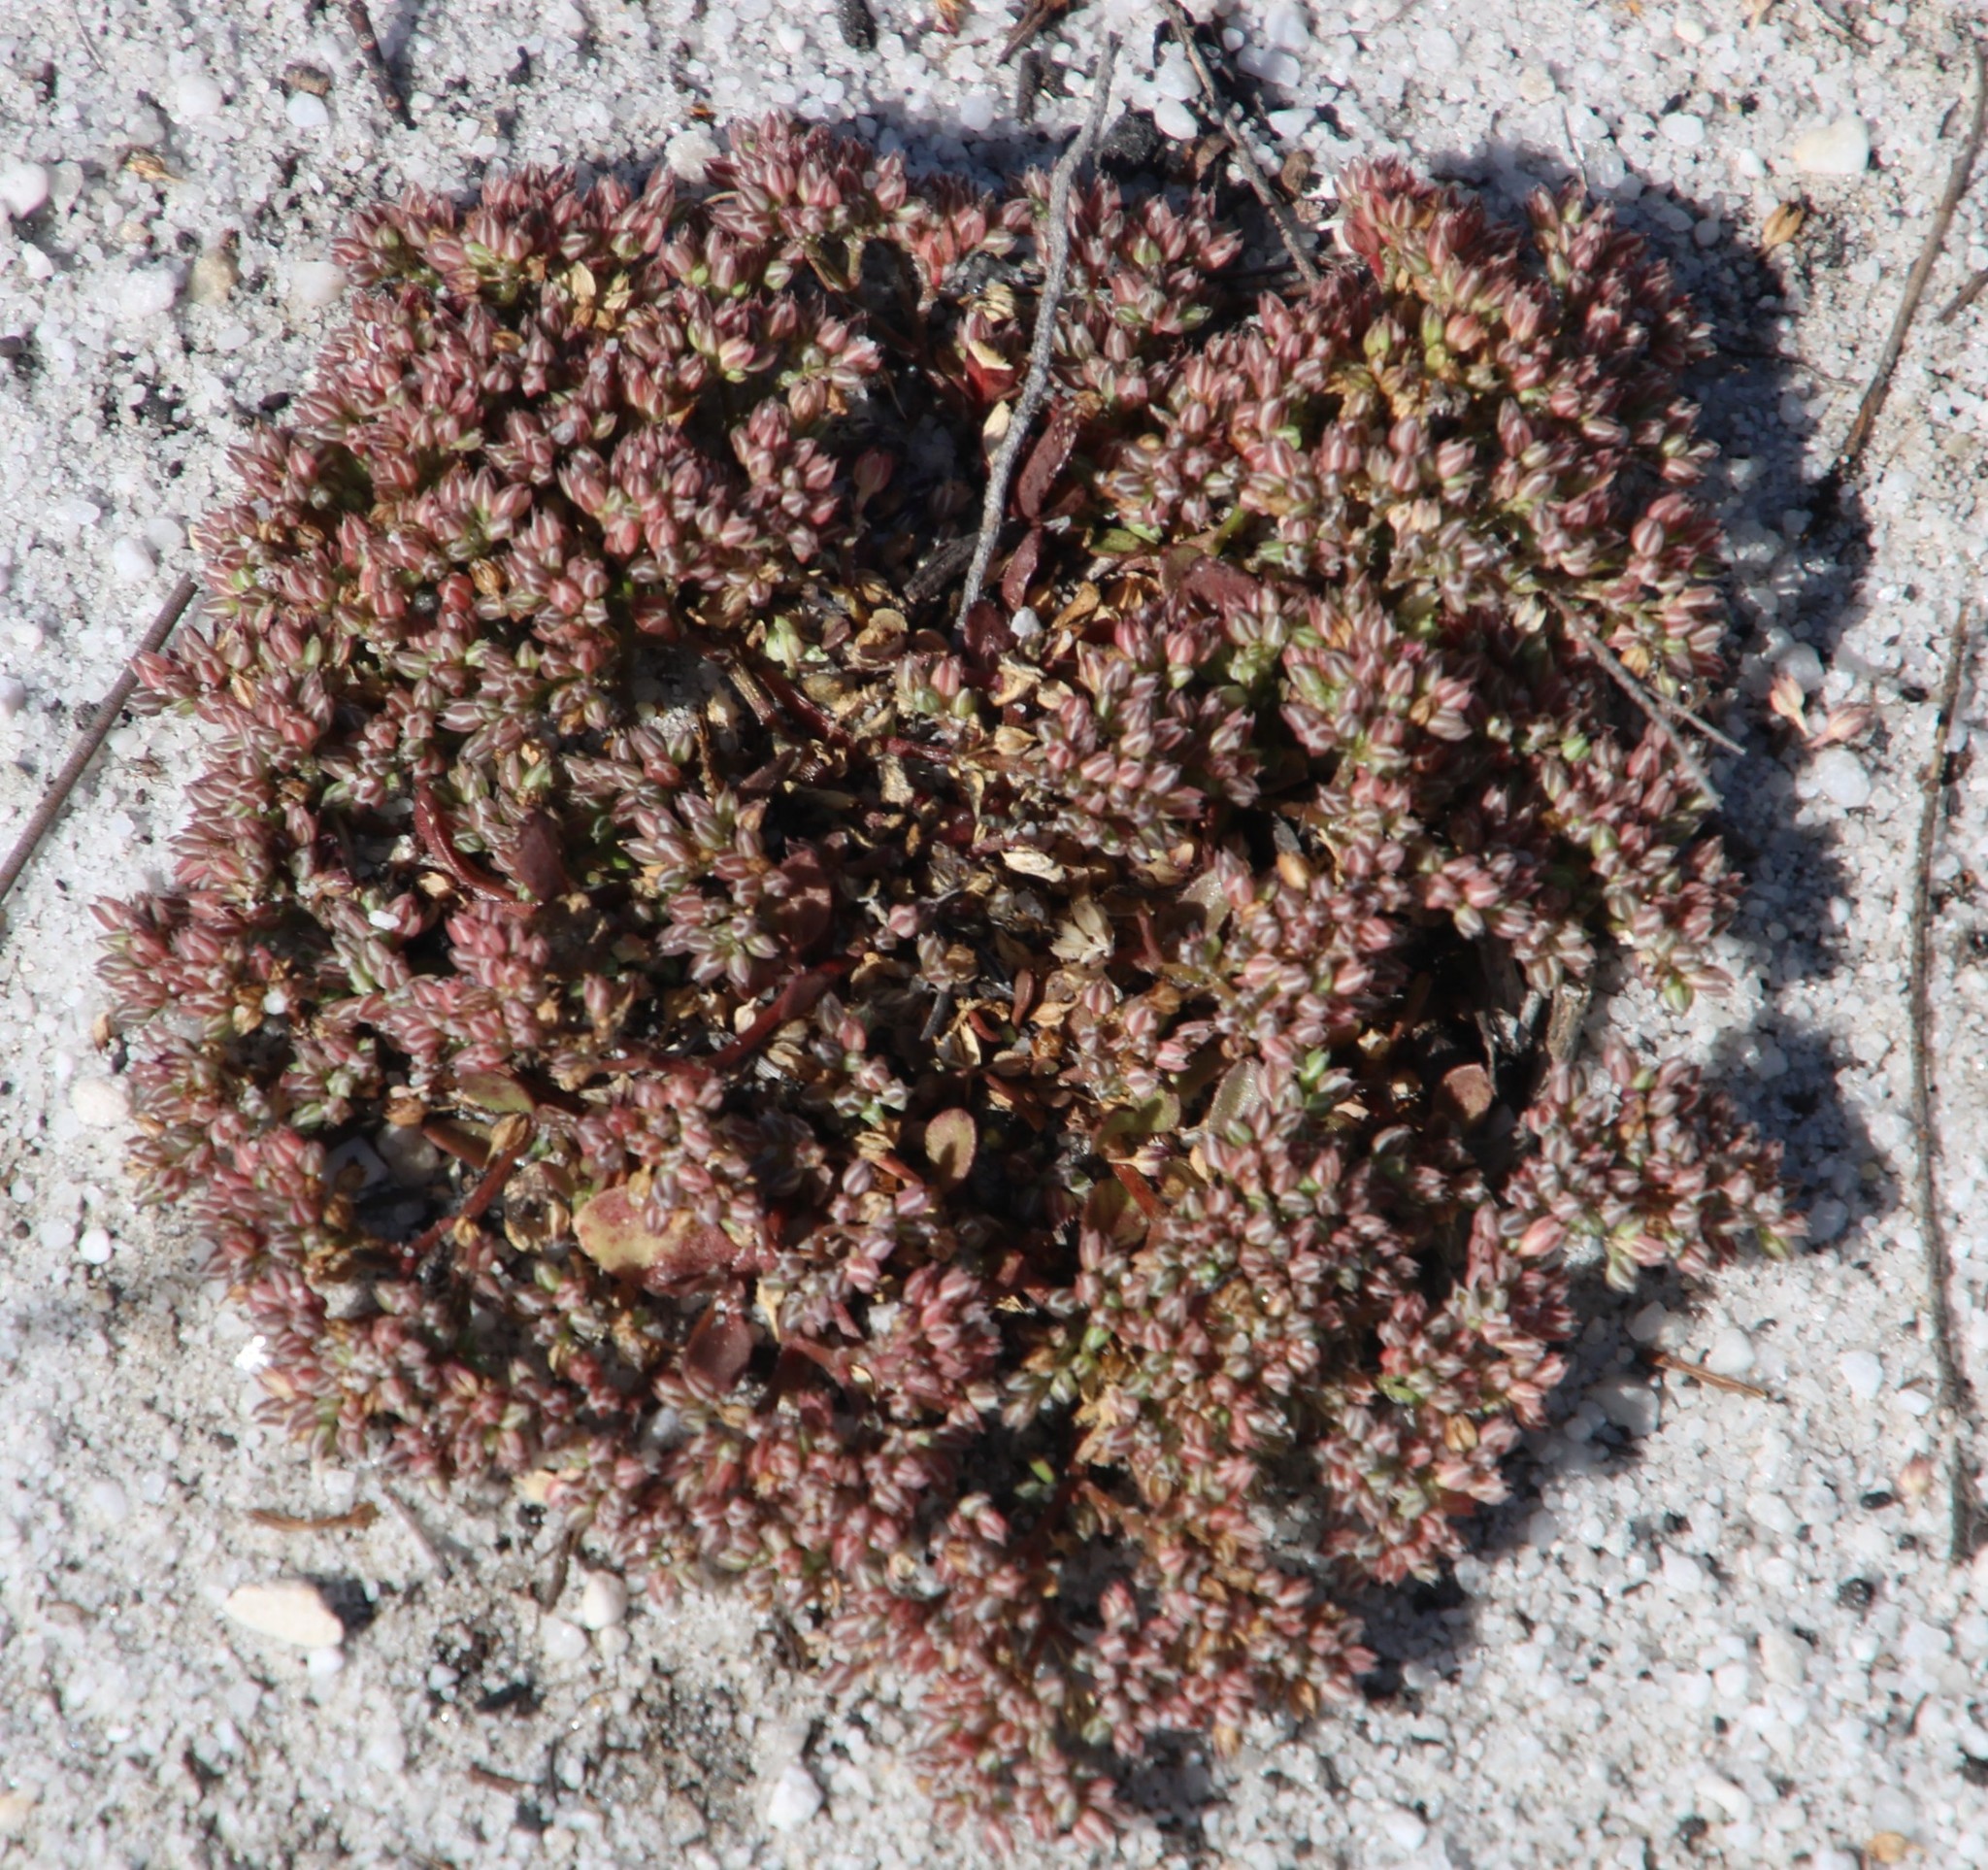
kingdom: Plantae
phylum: Tracheophyta
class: Magnoliopsida
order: Caryophyllales
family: Caryophyllaceae
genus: Polycarpon
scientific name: Polycarpon tetraphyllum
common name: Four-leaved all-seed
